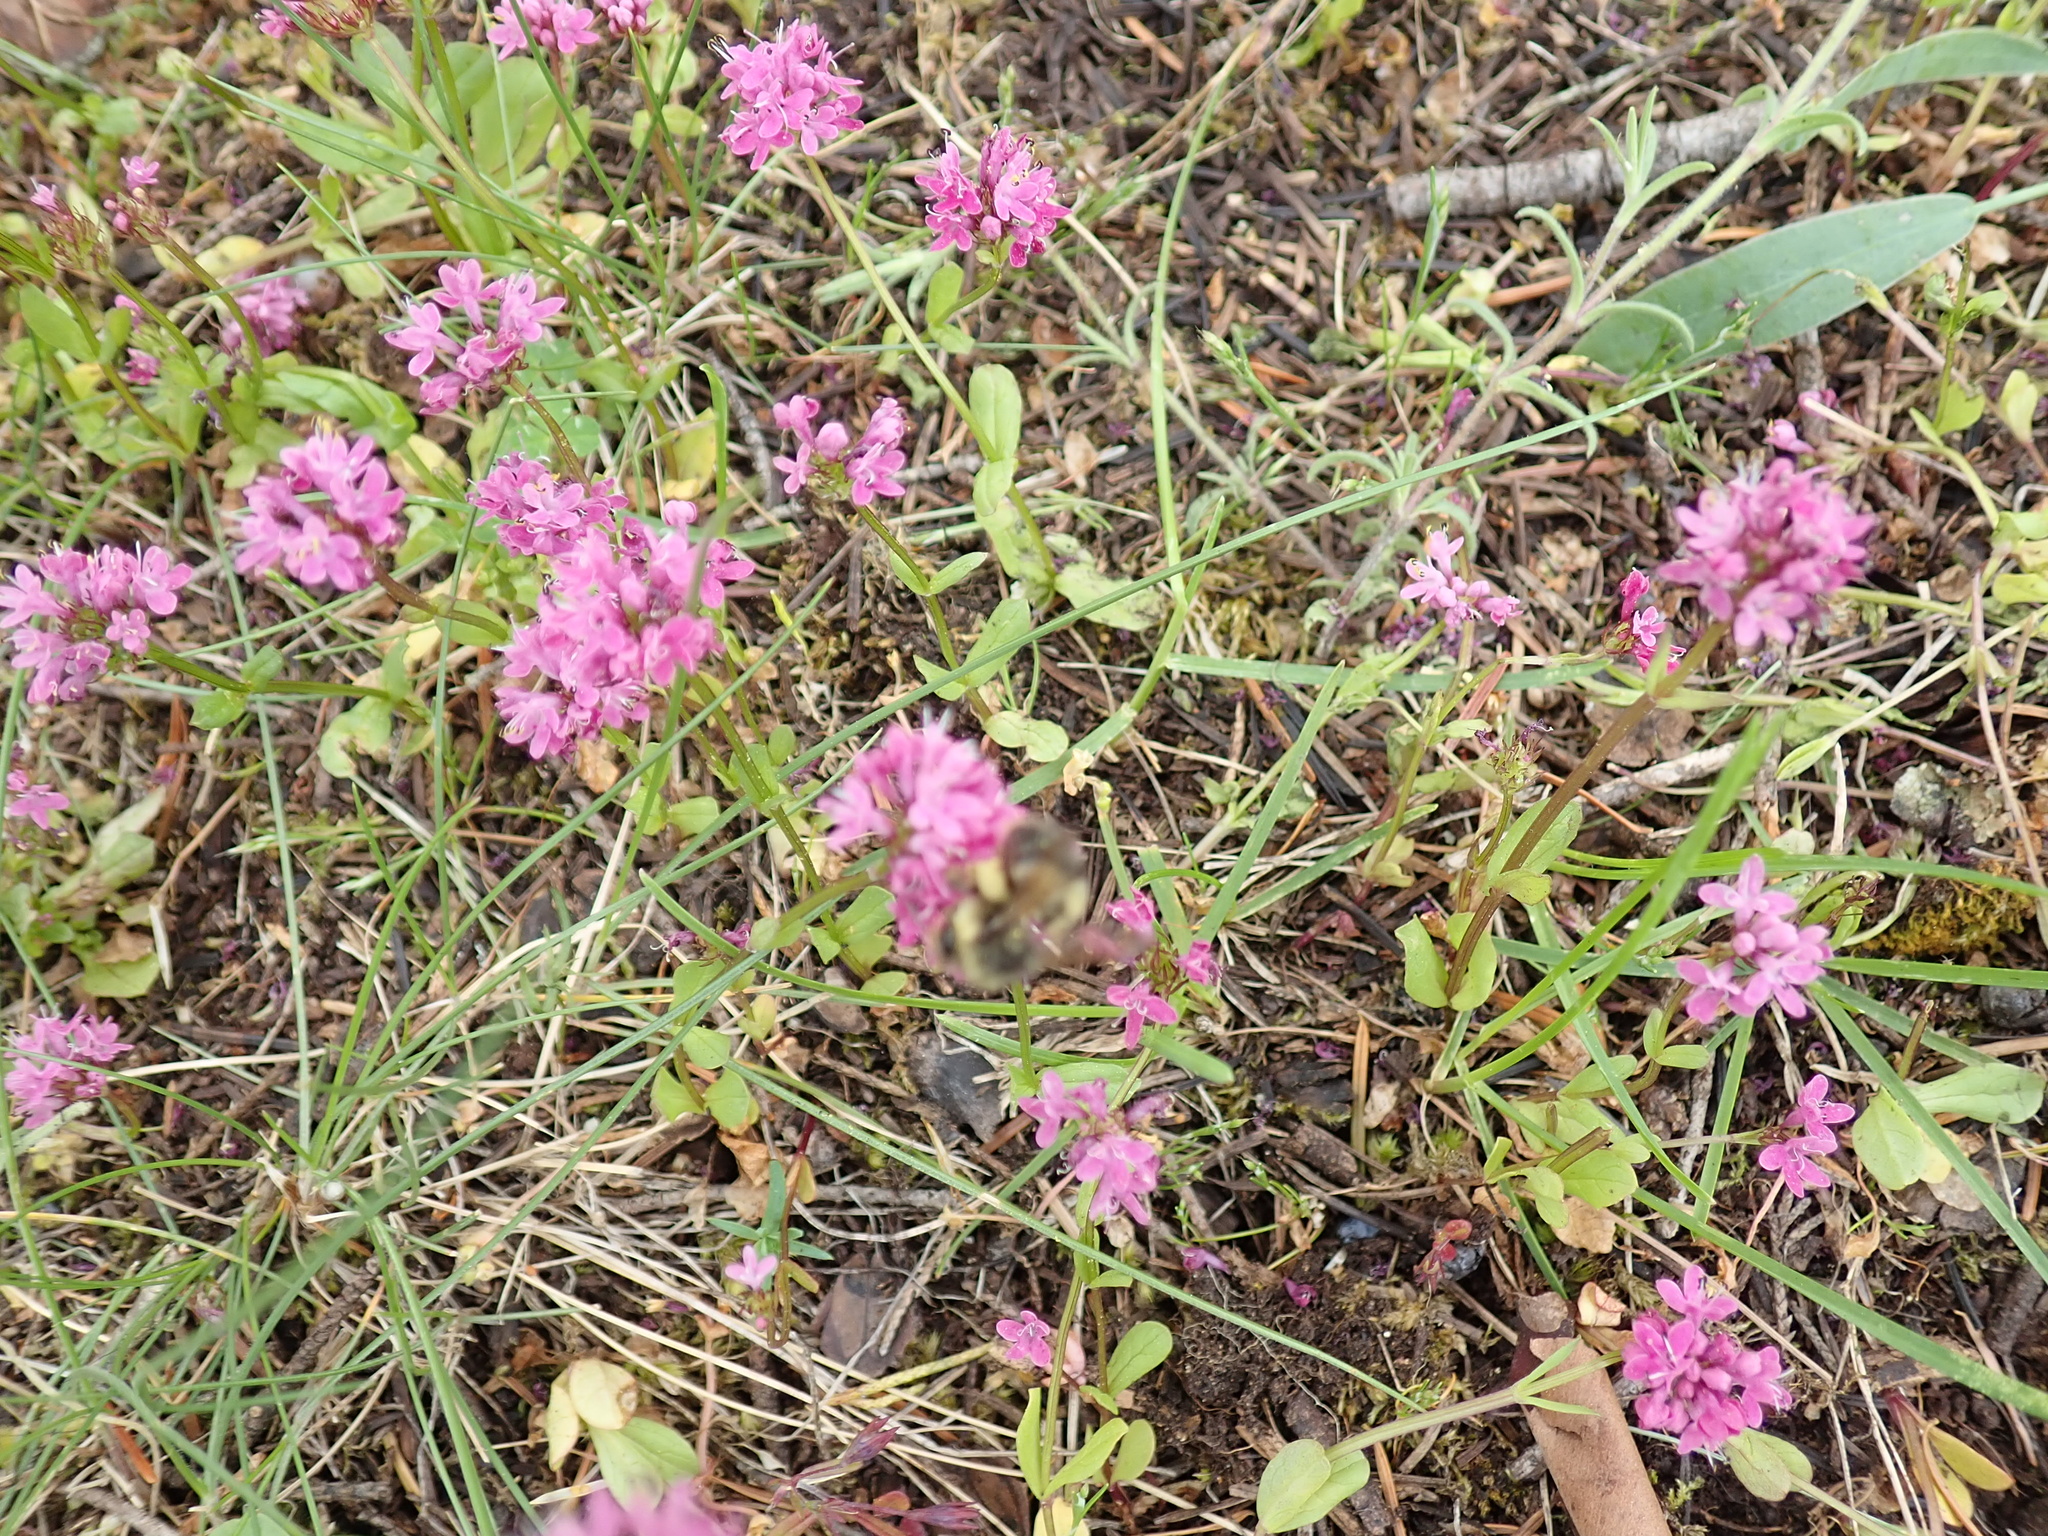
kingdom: Plantae
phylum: Tracheophyta
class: Magnoliopsida
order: Dipsacales
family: Caprifoliaceae
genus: Plectritis
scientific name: Plectritis congesta
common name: Pink plectritis
